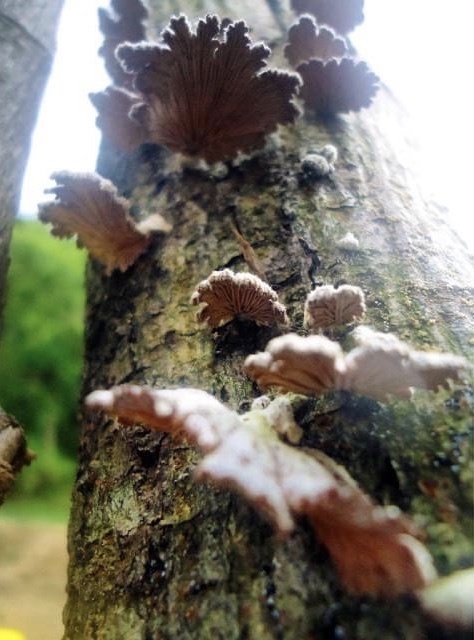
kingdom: Fungi
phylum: Basidiomycota
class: Agaricomycetes
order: Agaricales
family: Schizophyllaceae
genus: Schizophyllum
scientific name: Schizophyllum commune
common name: Common porecrust
